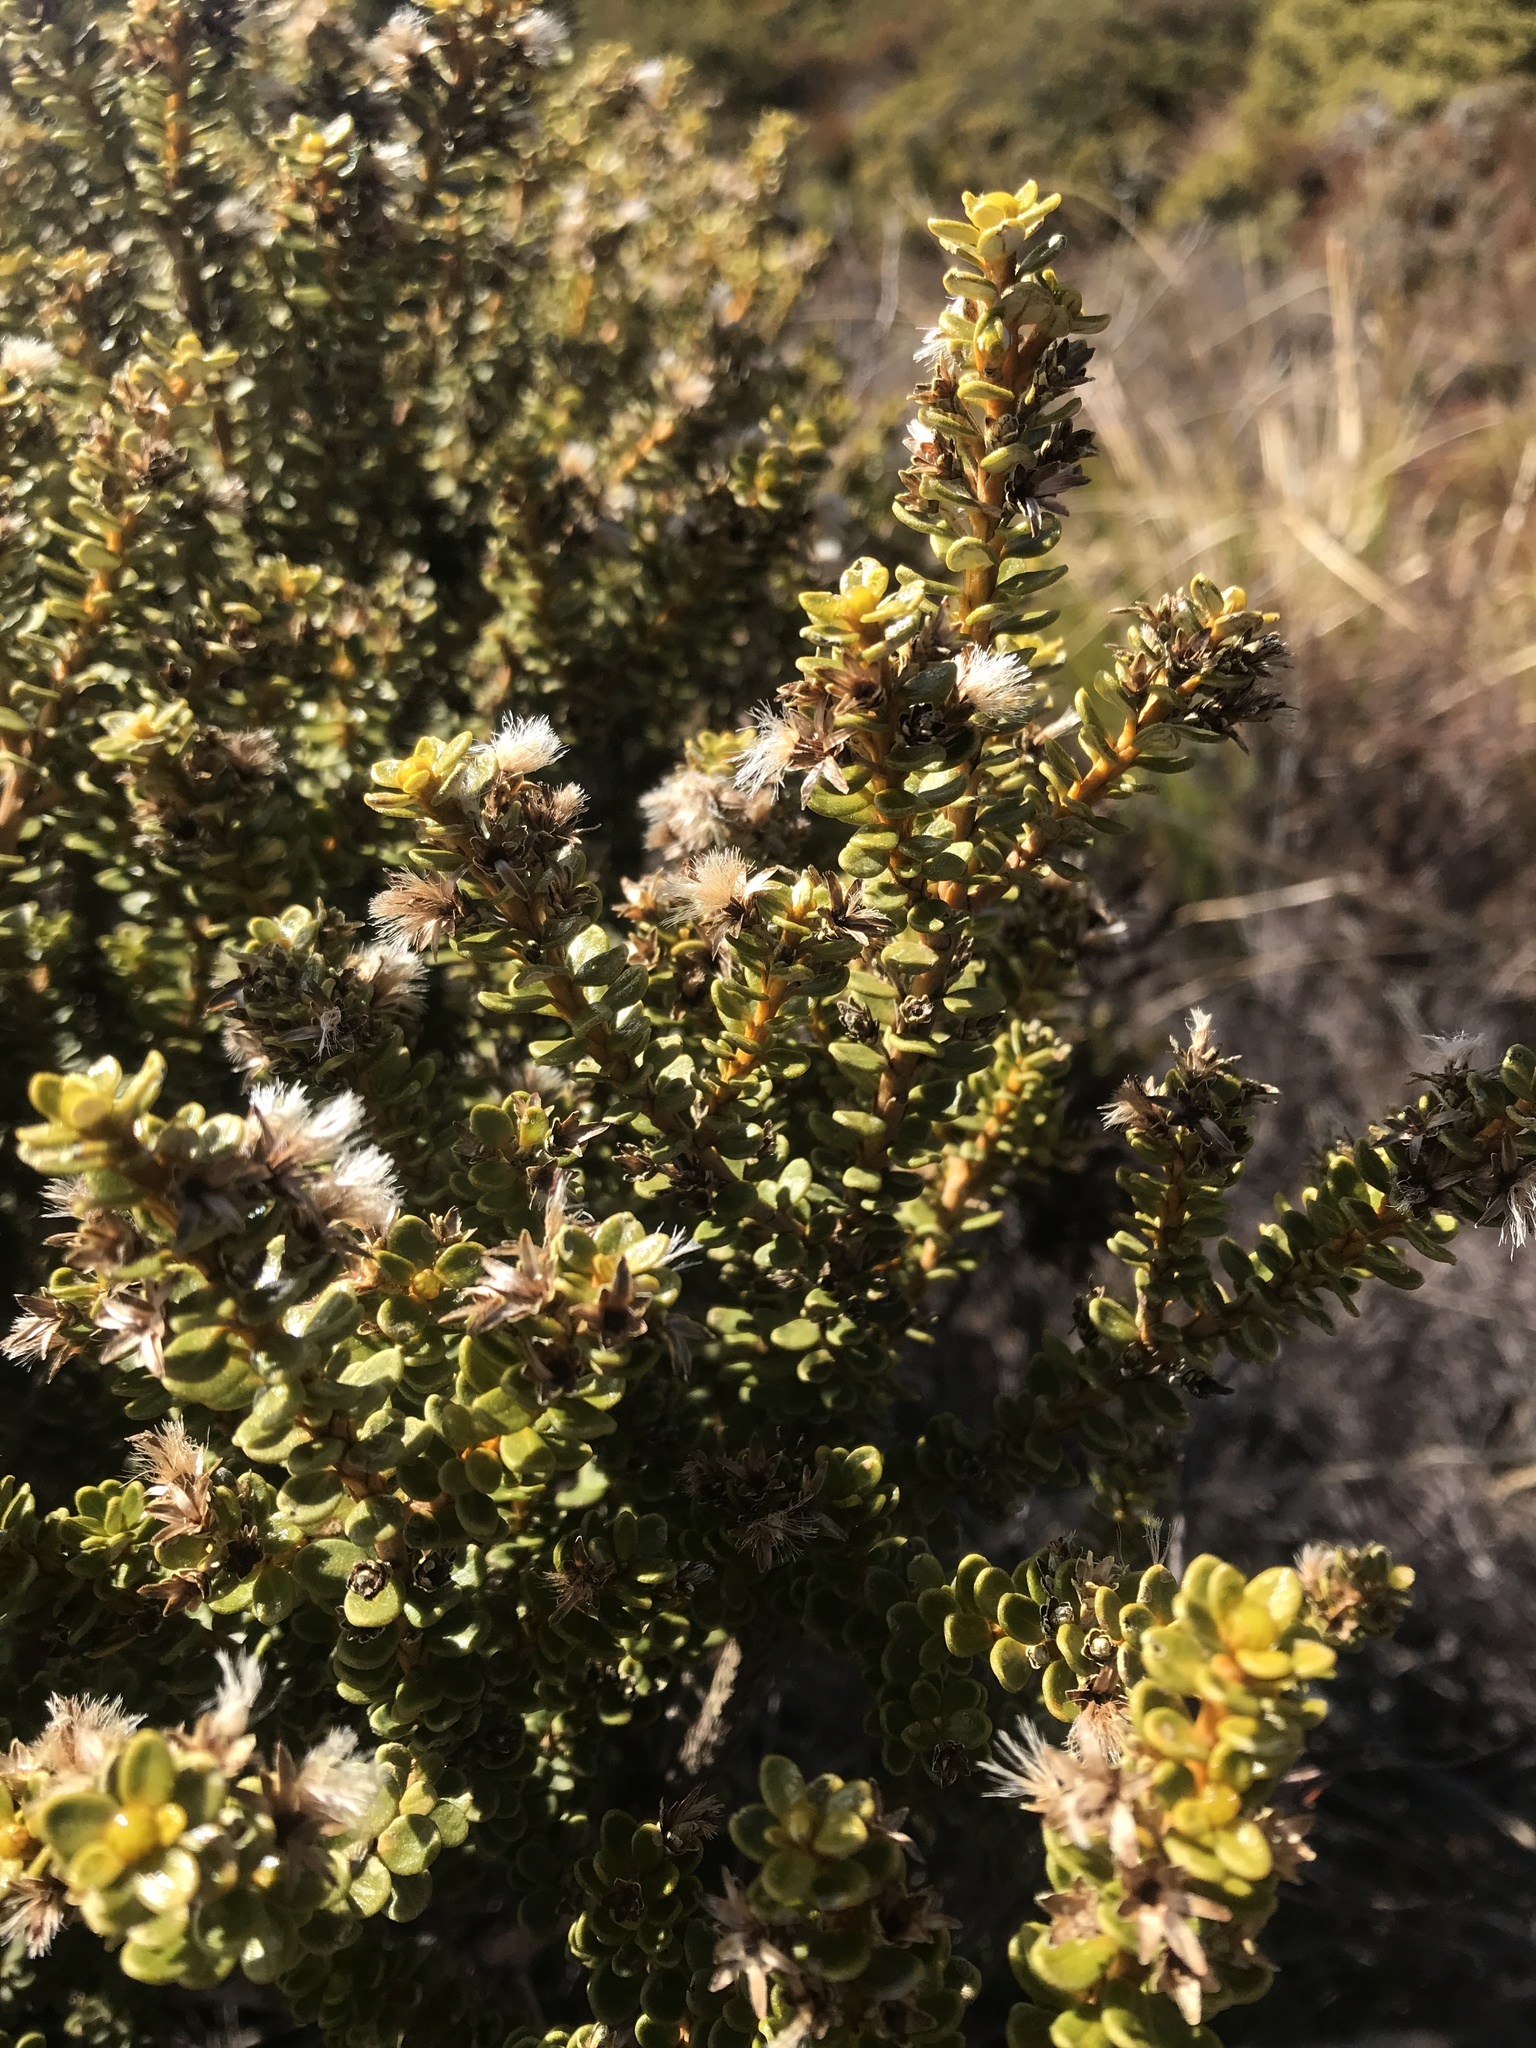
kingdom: Plantae
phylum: Tracheophyta
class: Magnoliopsida
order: Asterales
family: Asteraceae
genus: Ozothamnus
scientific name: Ozothamnus leptophyllus
